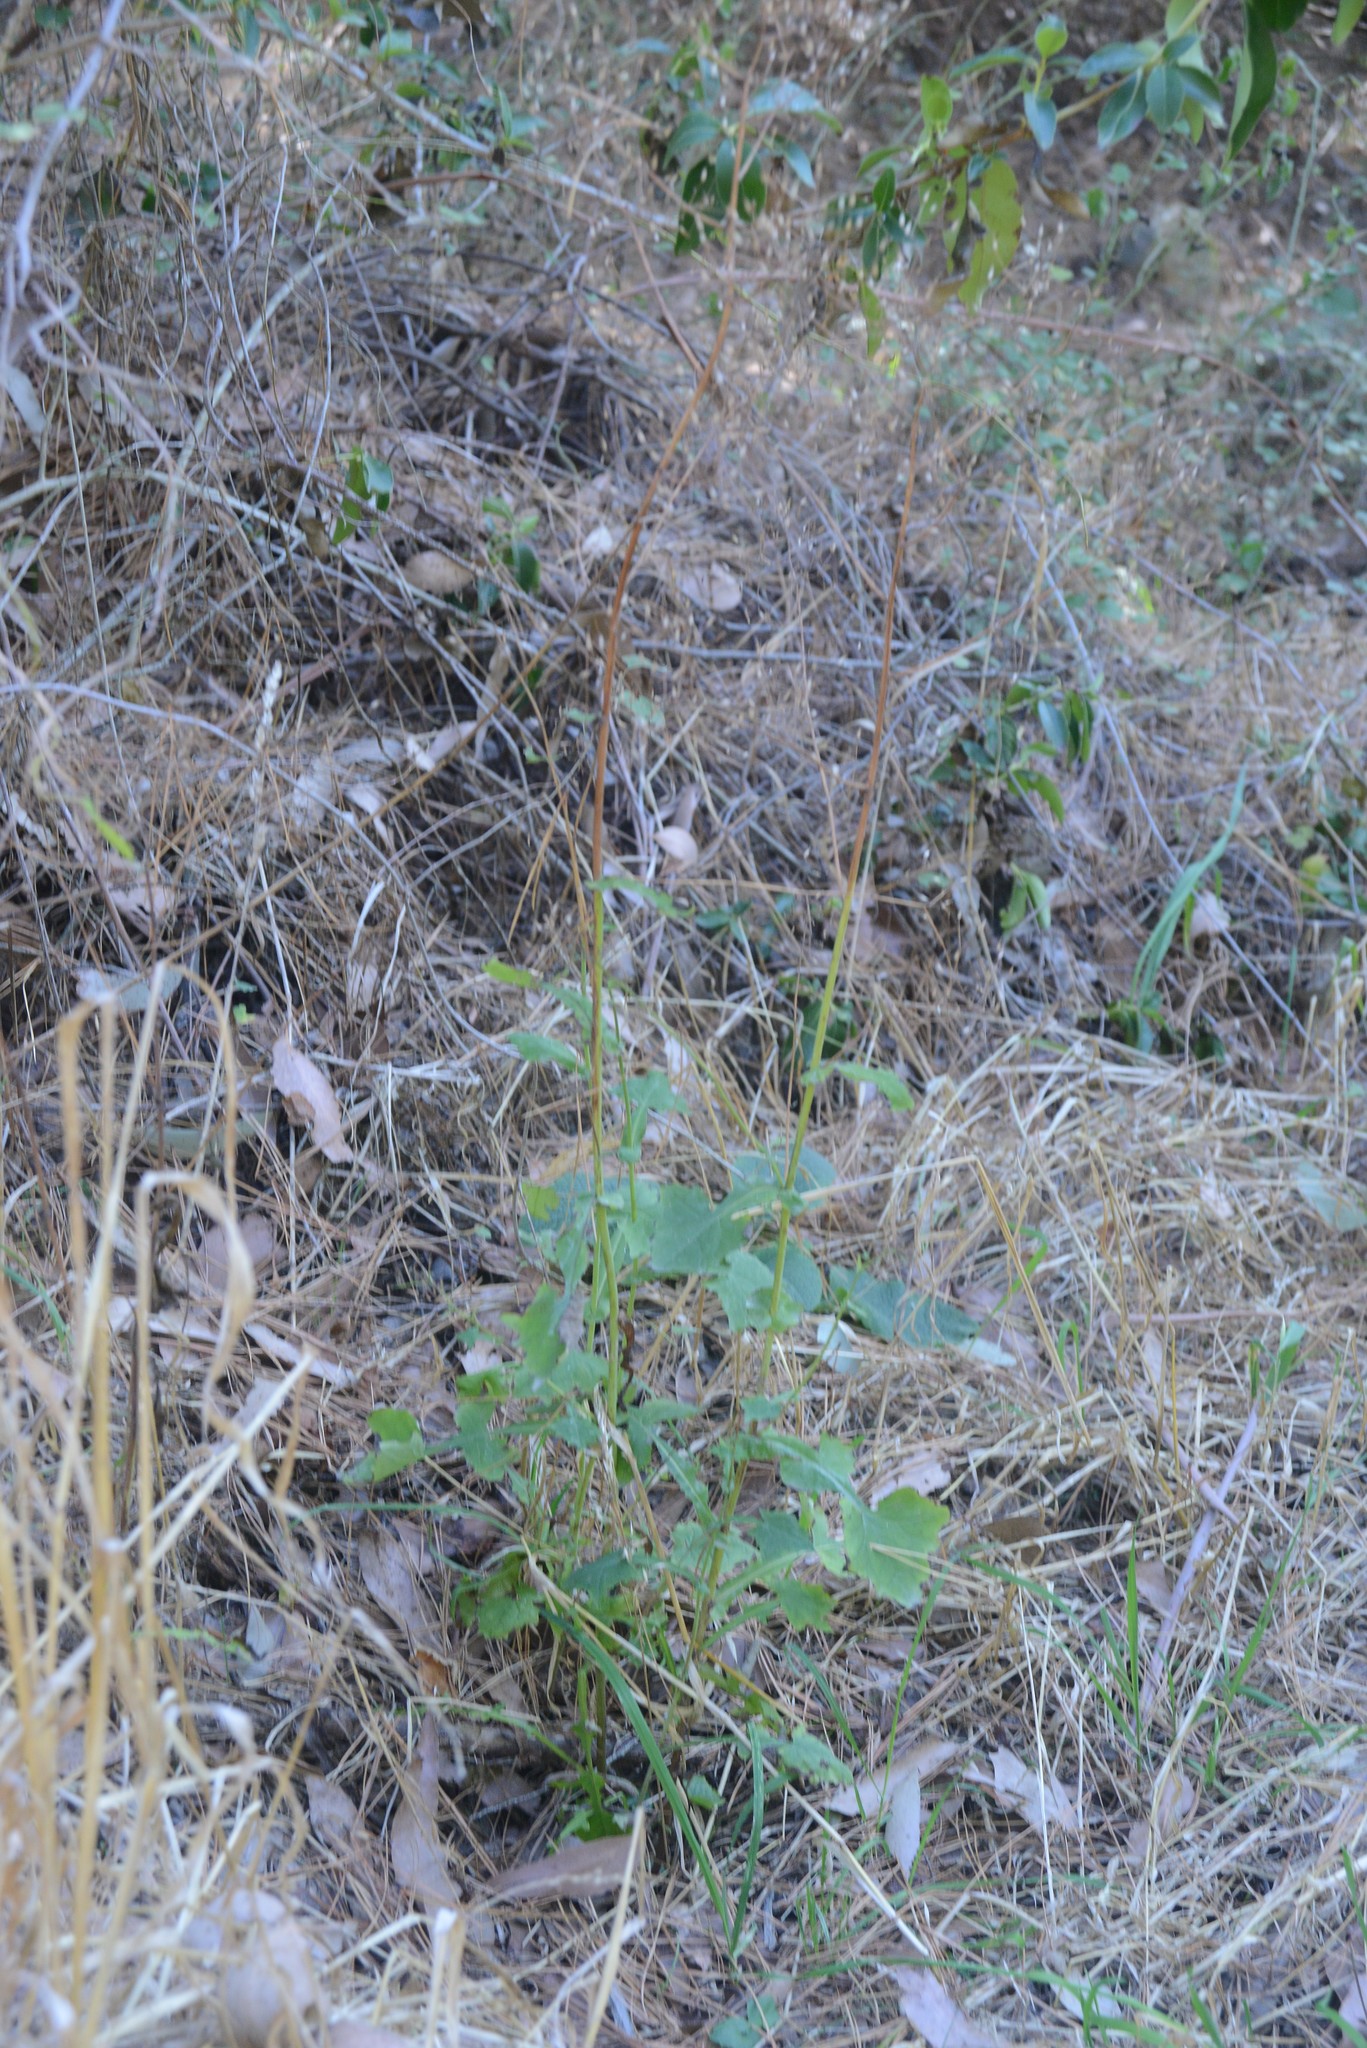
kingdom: Plantae
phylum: Tracheophyta
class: Magnoliopsida
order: Asterales
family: Asteraceae
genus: Mycelis
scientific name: Mycelis muralis
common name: Wall lettuce
